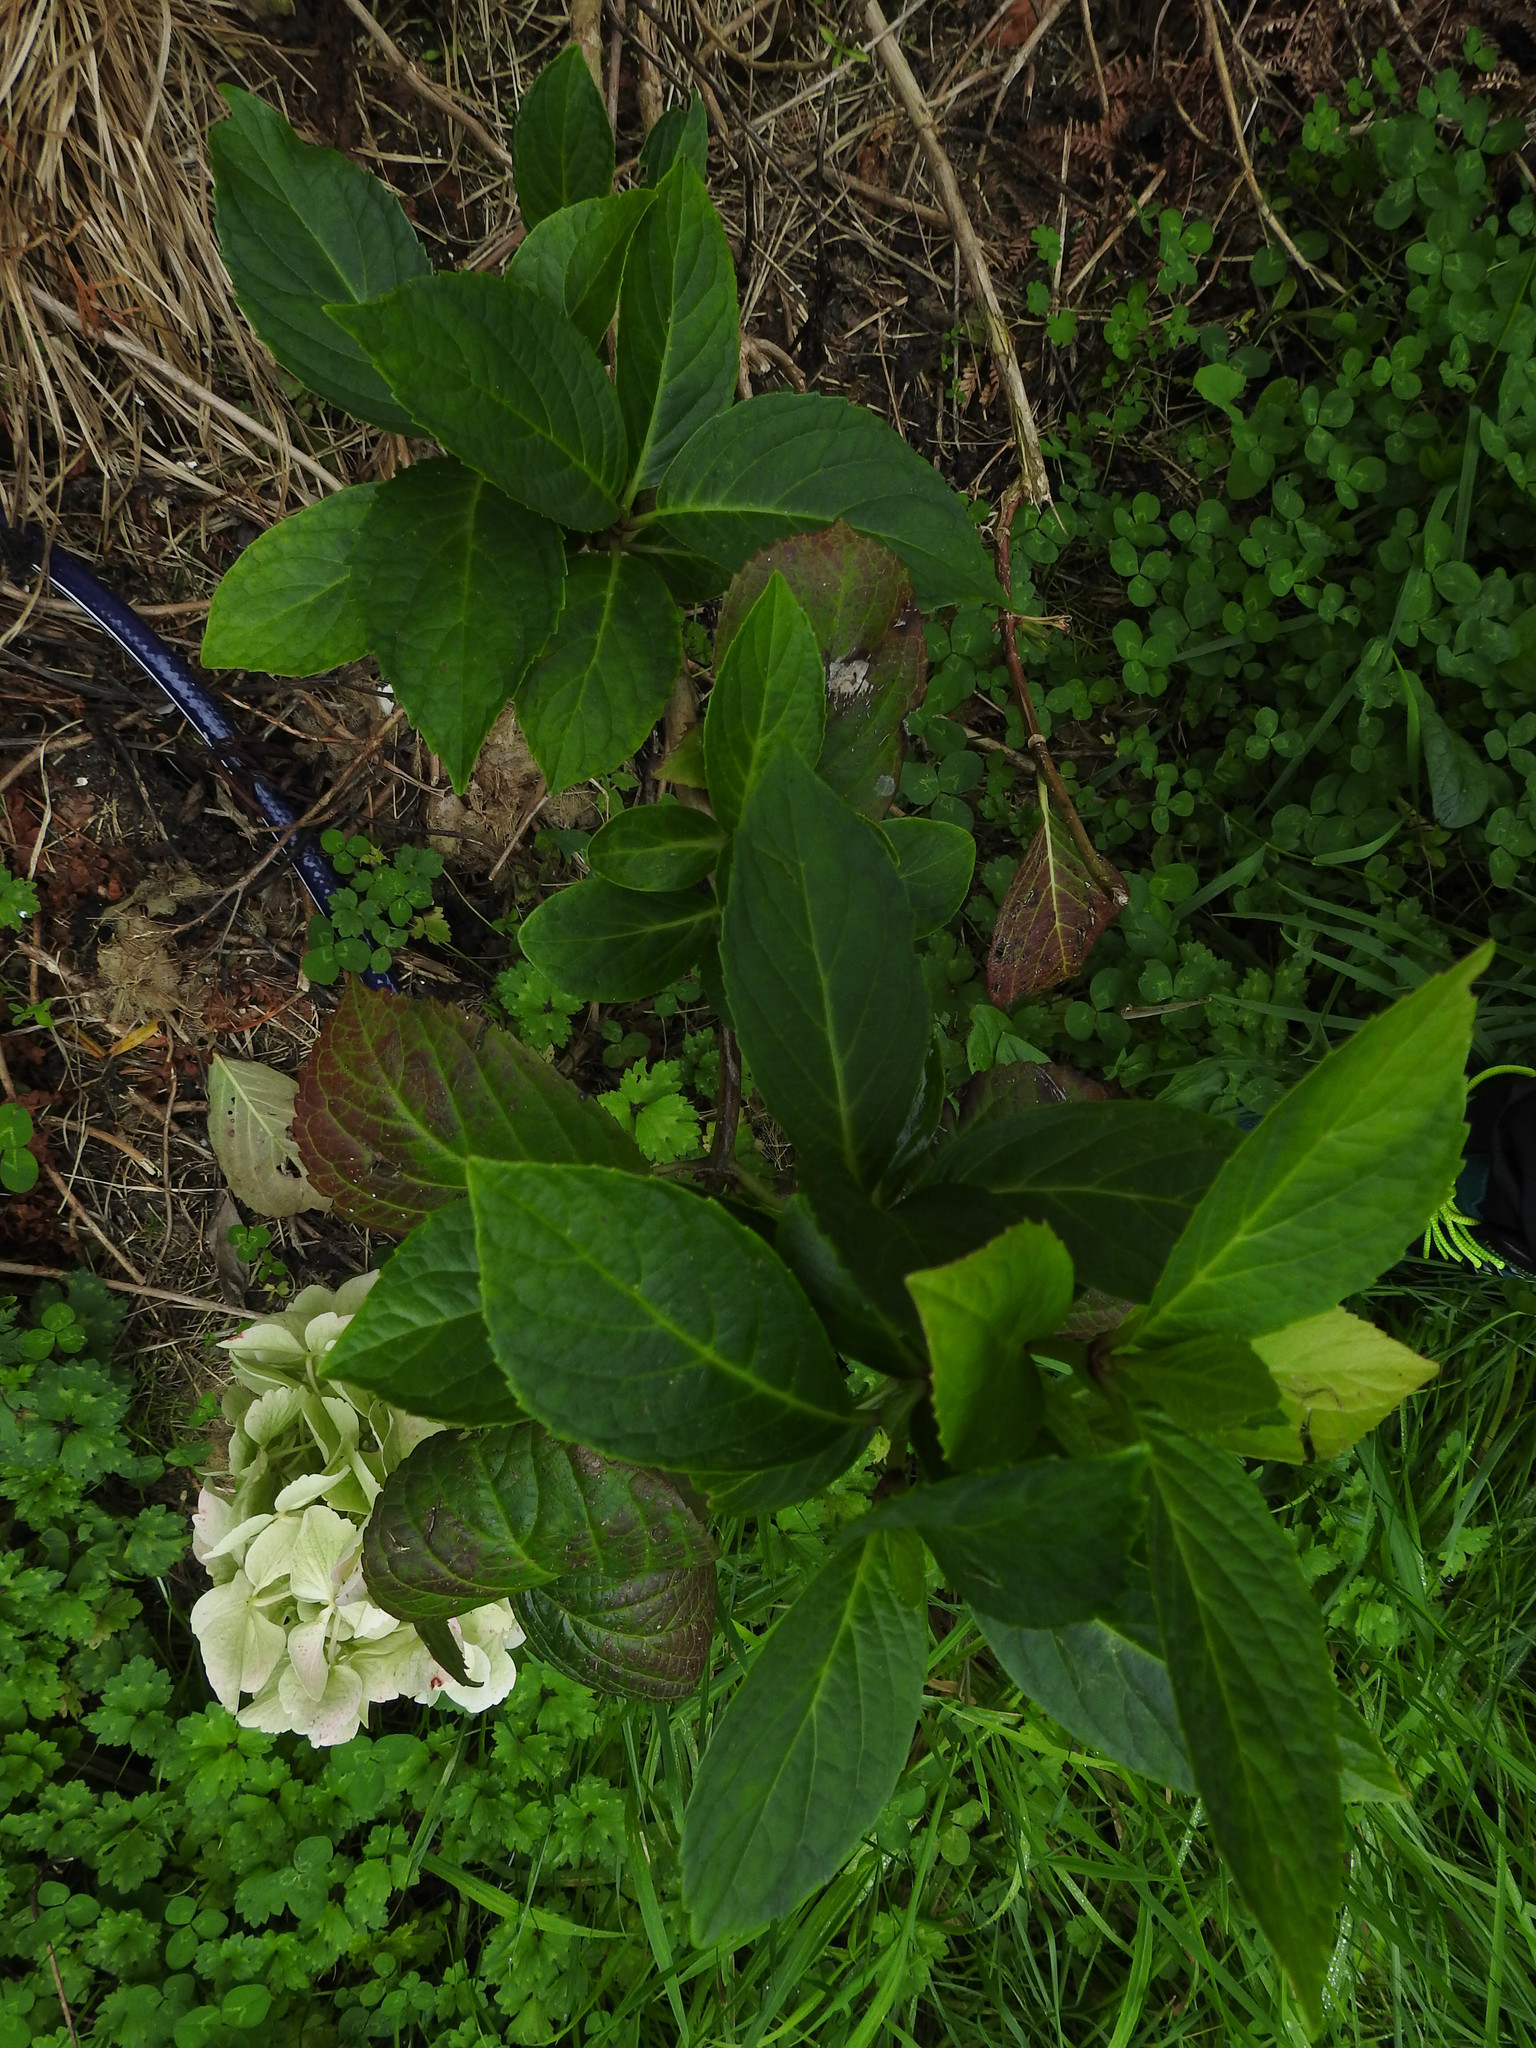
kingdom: Plantae
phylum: Tracheophyta
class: Magnoliopsida
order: Cornales
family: Hydrangeaceae
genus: Hydrangea
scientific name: Hydrangea macrophylla
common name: Hydrangea
